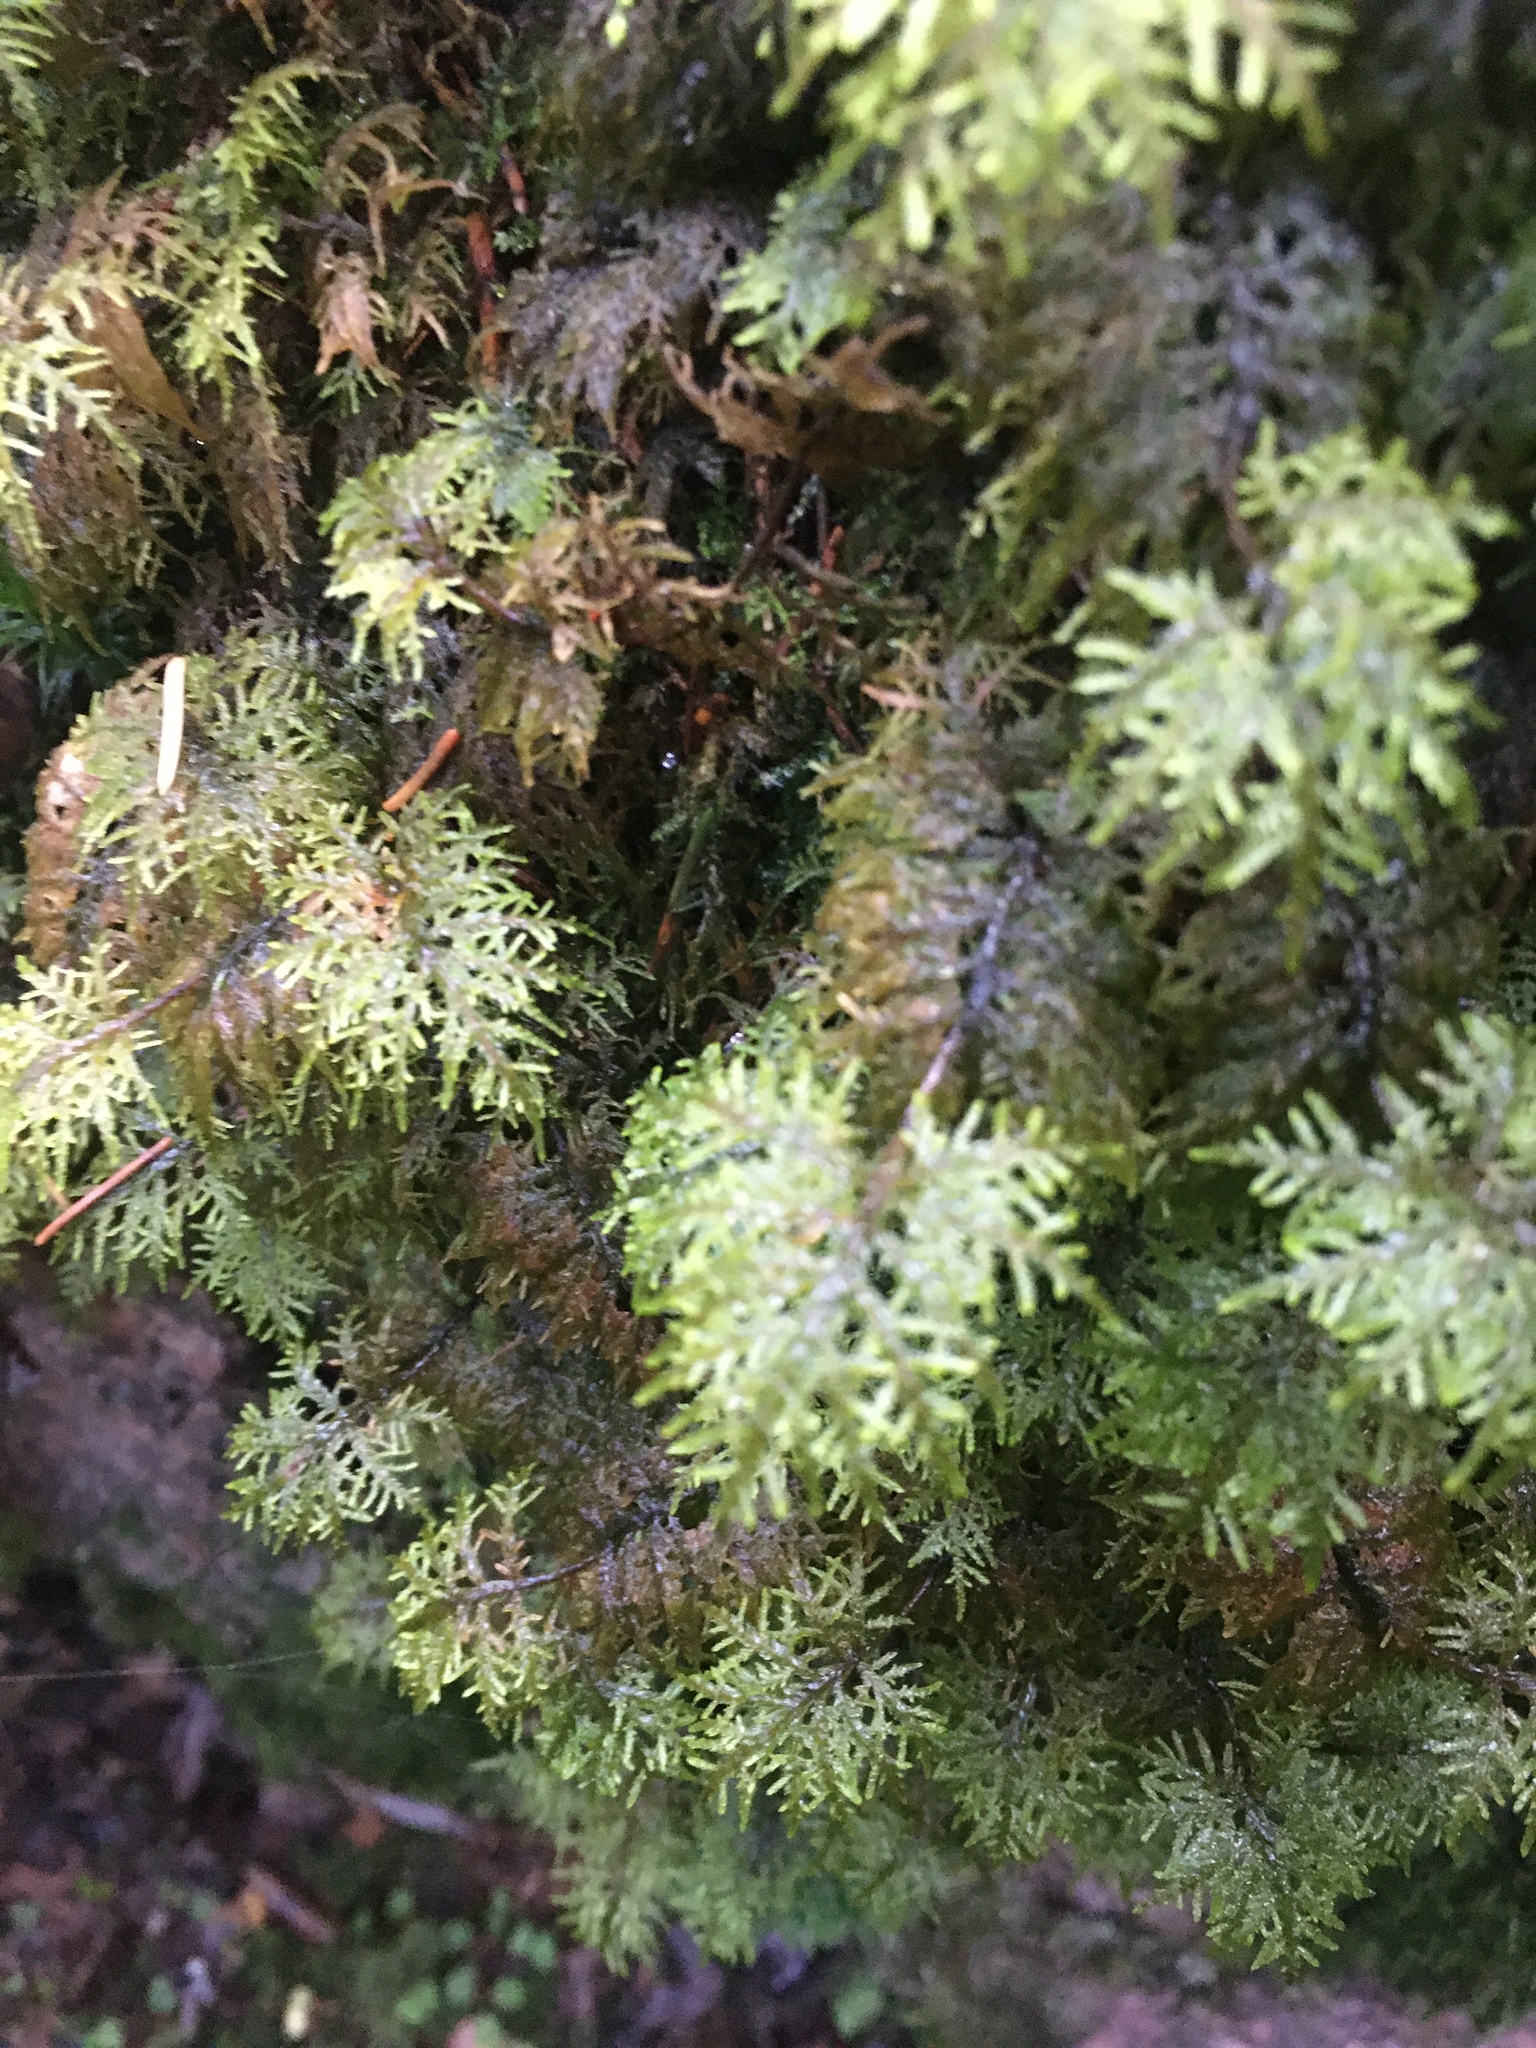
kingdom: Plantae
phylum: Bryophyta
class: Bryopsida
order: Hypnales
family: Hylocomiaceae
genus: Hylocomium
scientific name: Hylocomium splendens
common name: Stairstep moss
